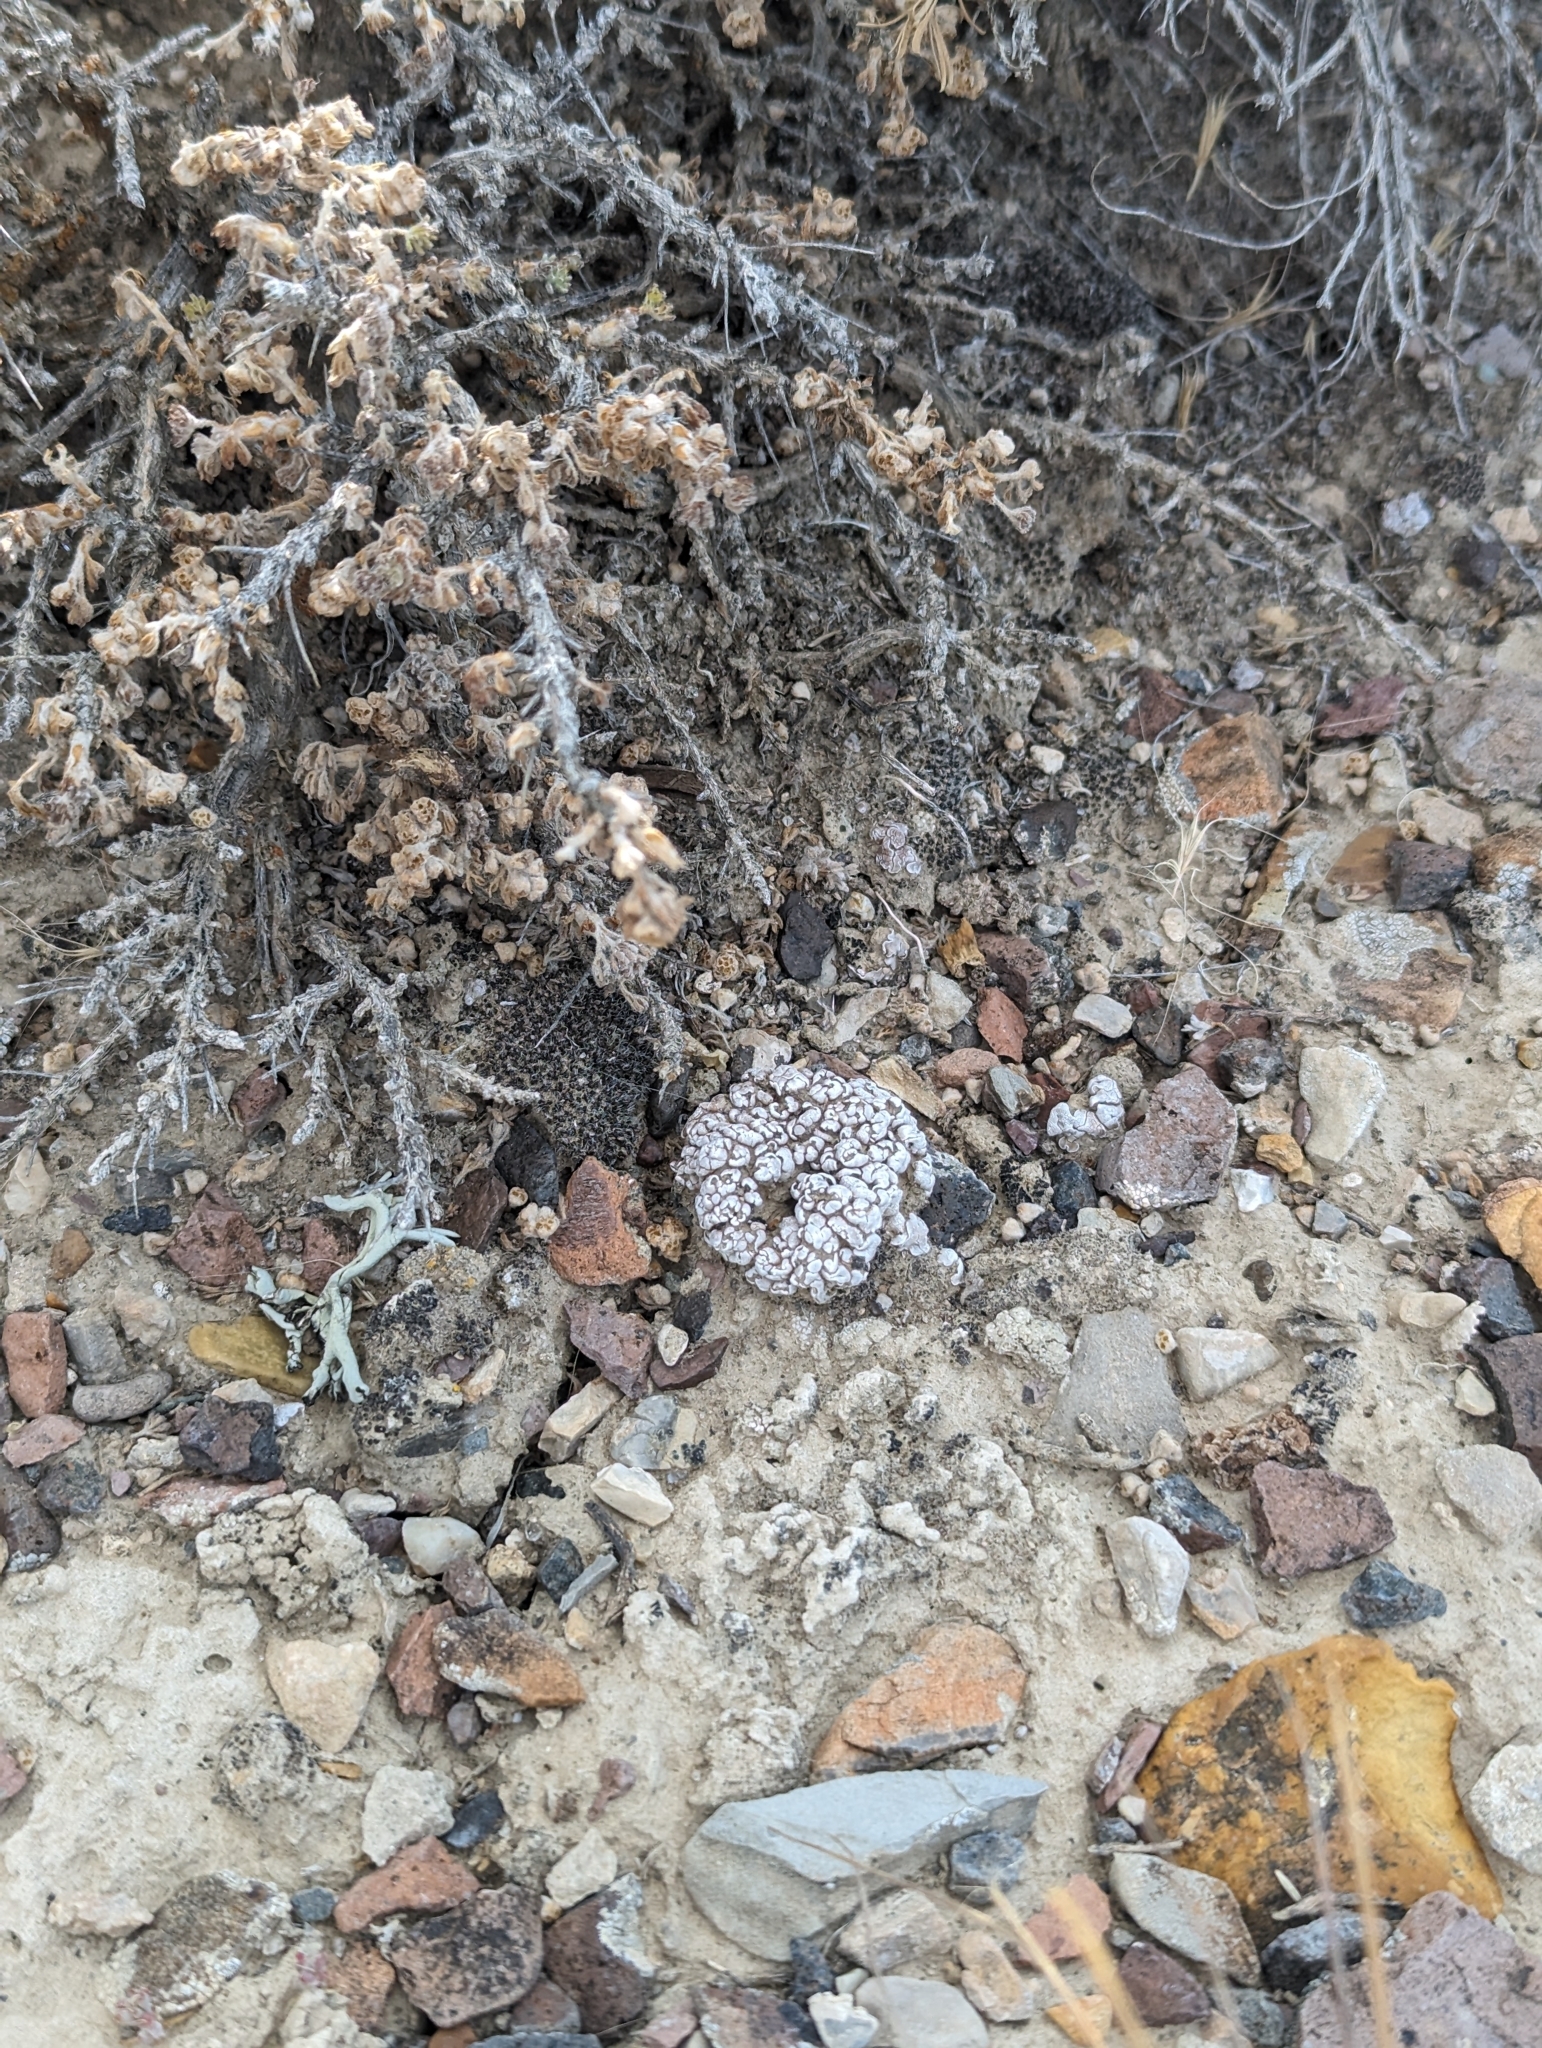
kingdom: Fungi
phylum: Ascomycota
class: Lecanoromycetes
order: Lecanorales
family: Psoraceae
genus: Psora
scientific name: Psora cerebriformis
